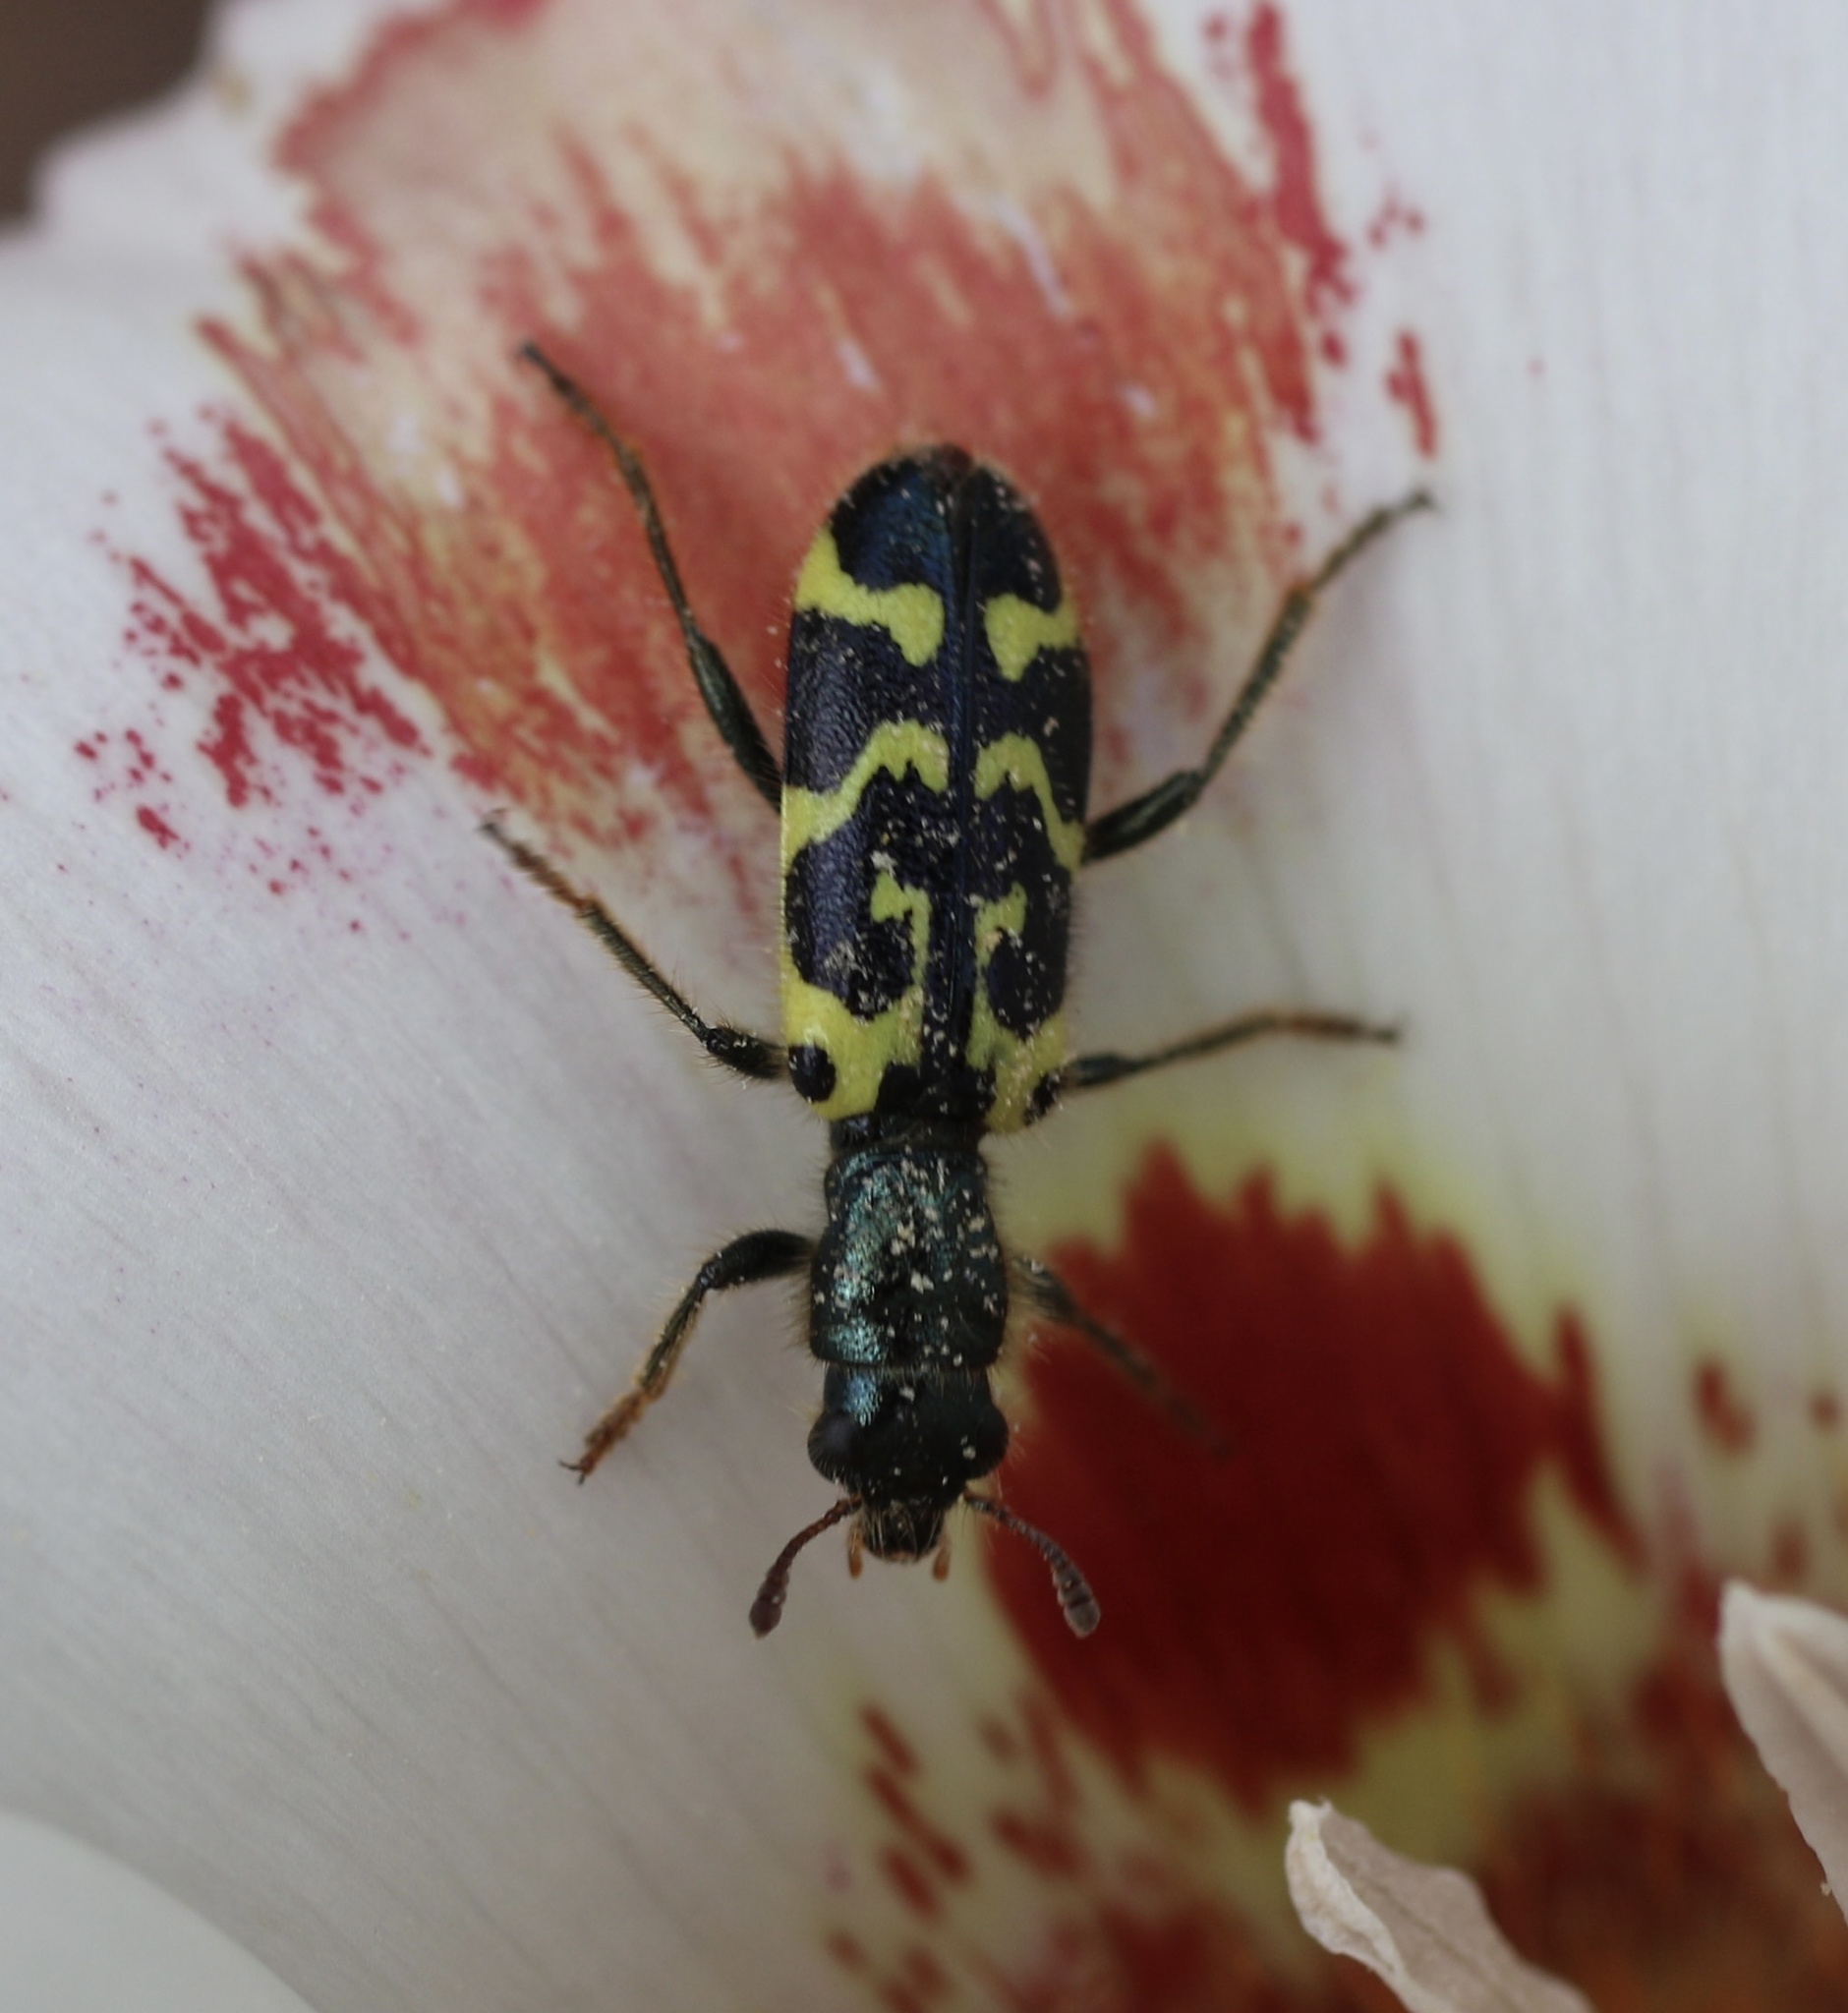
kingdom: Animalia
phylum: Arthropoda
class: Insecta
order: Coleoptera
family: Cleridae
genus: Trichodes
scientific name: Trichodes ornatus
